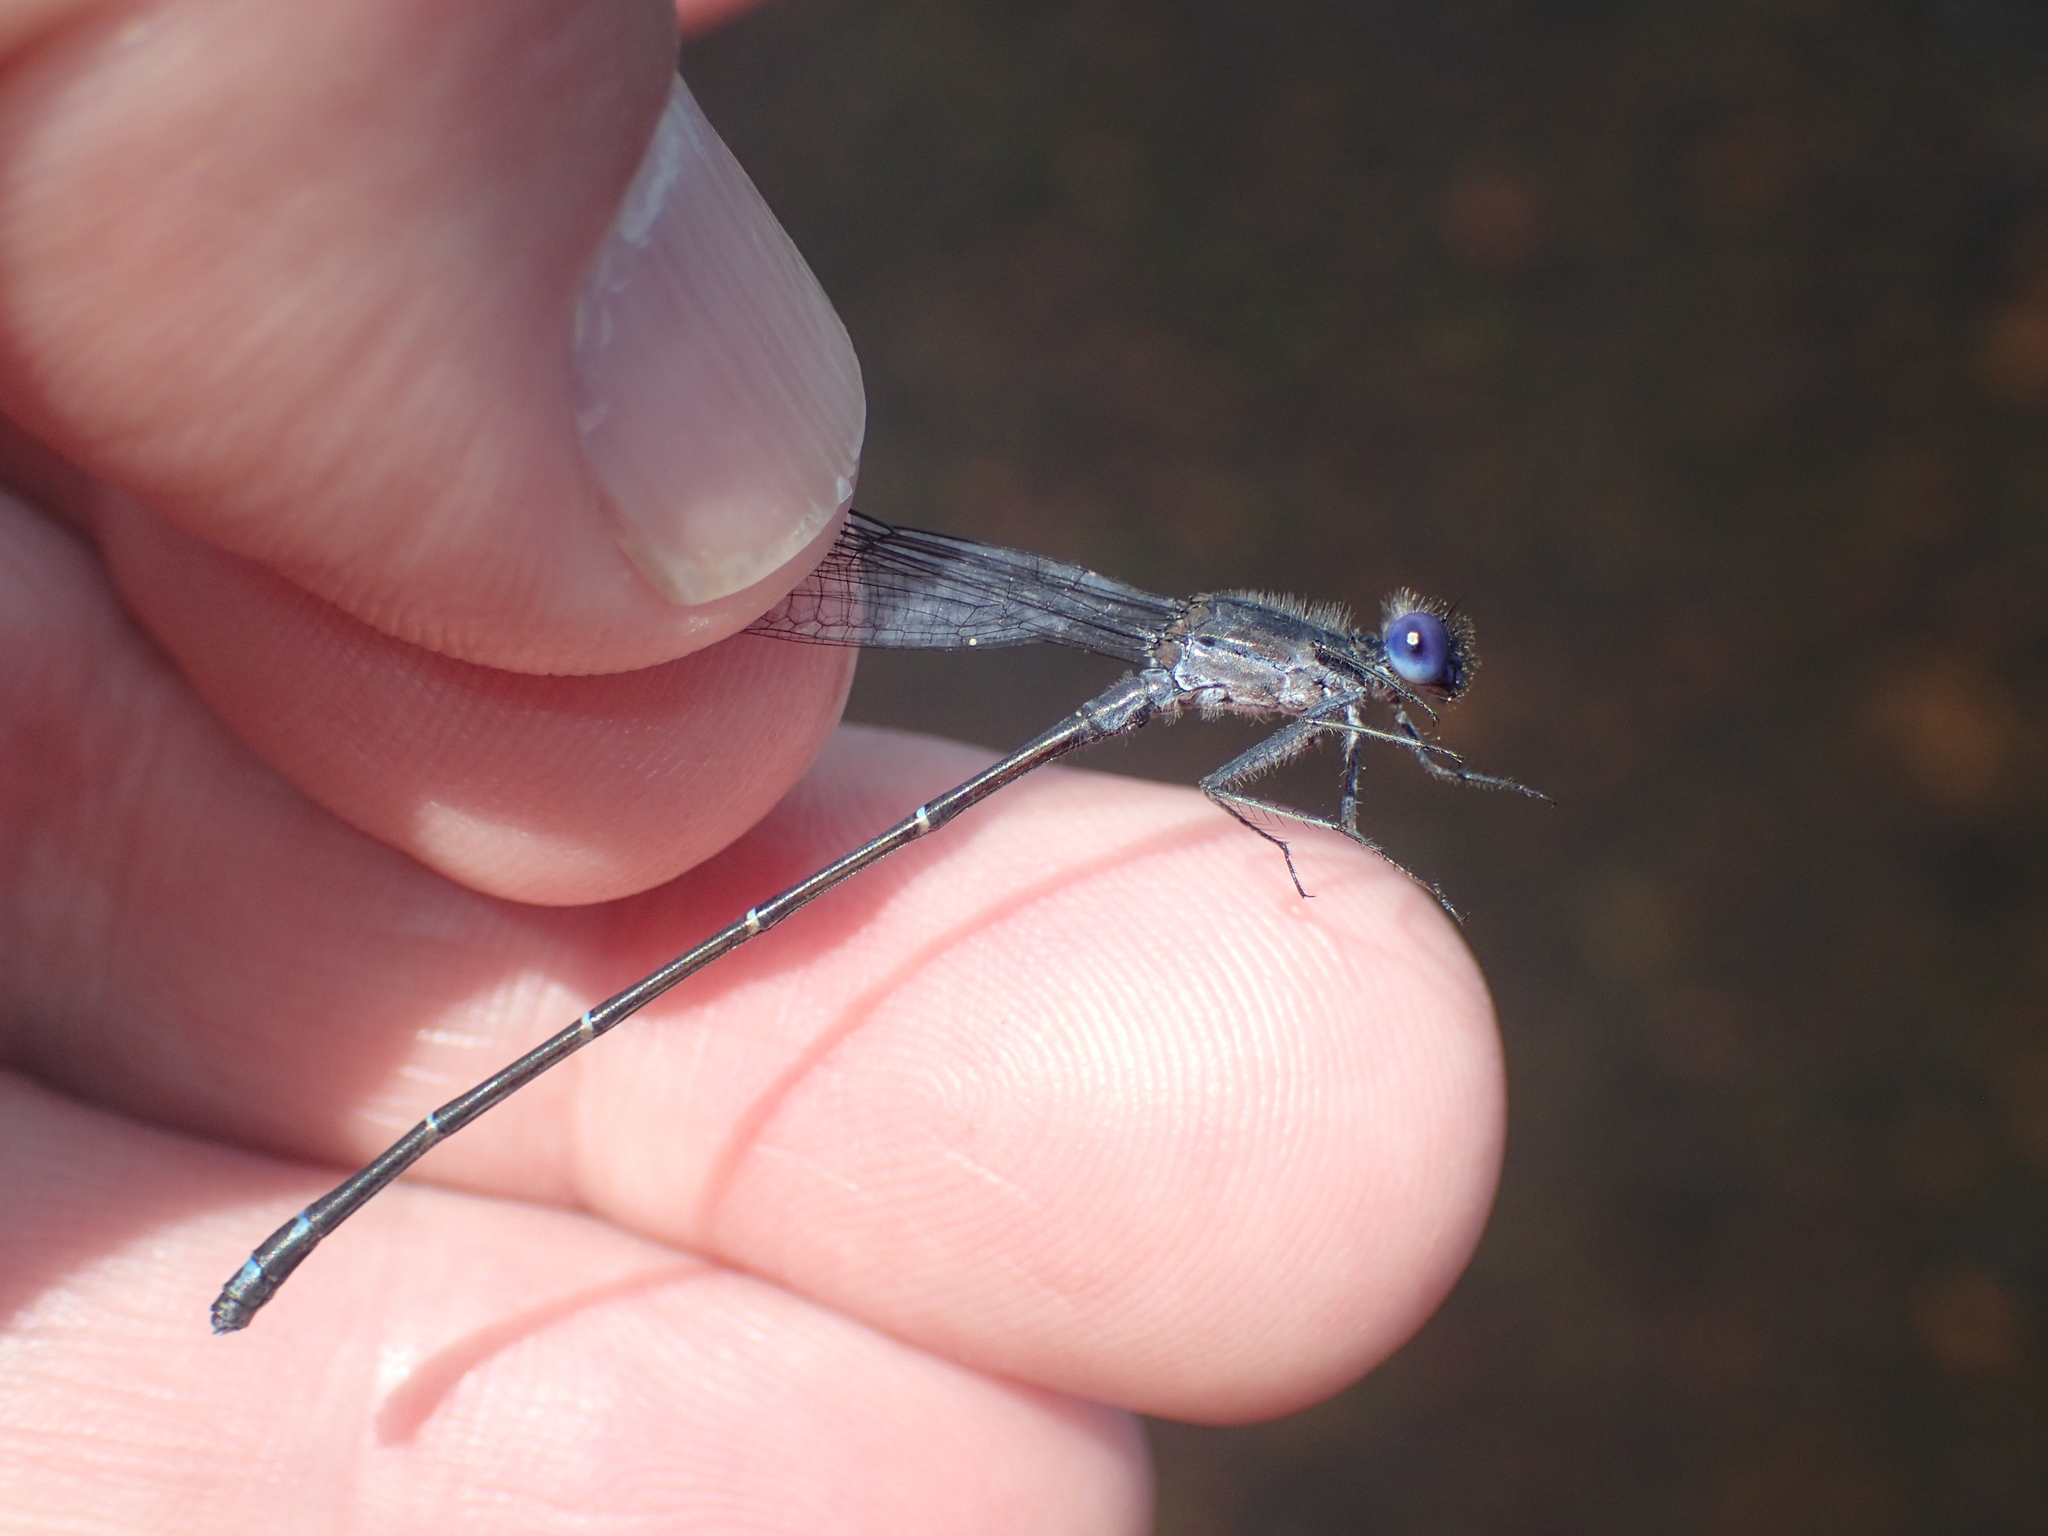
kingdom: Animalia
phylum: Arthropoda
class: Insecta
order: Odonata
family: Coenagrionidae
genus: Argia
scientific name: Argia translata
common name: Dusky dancer
